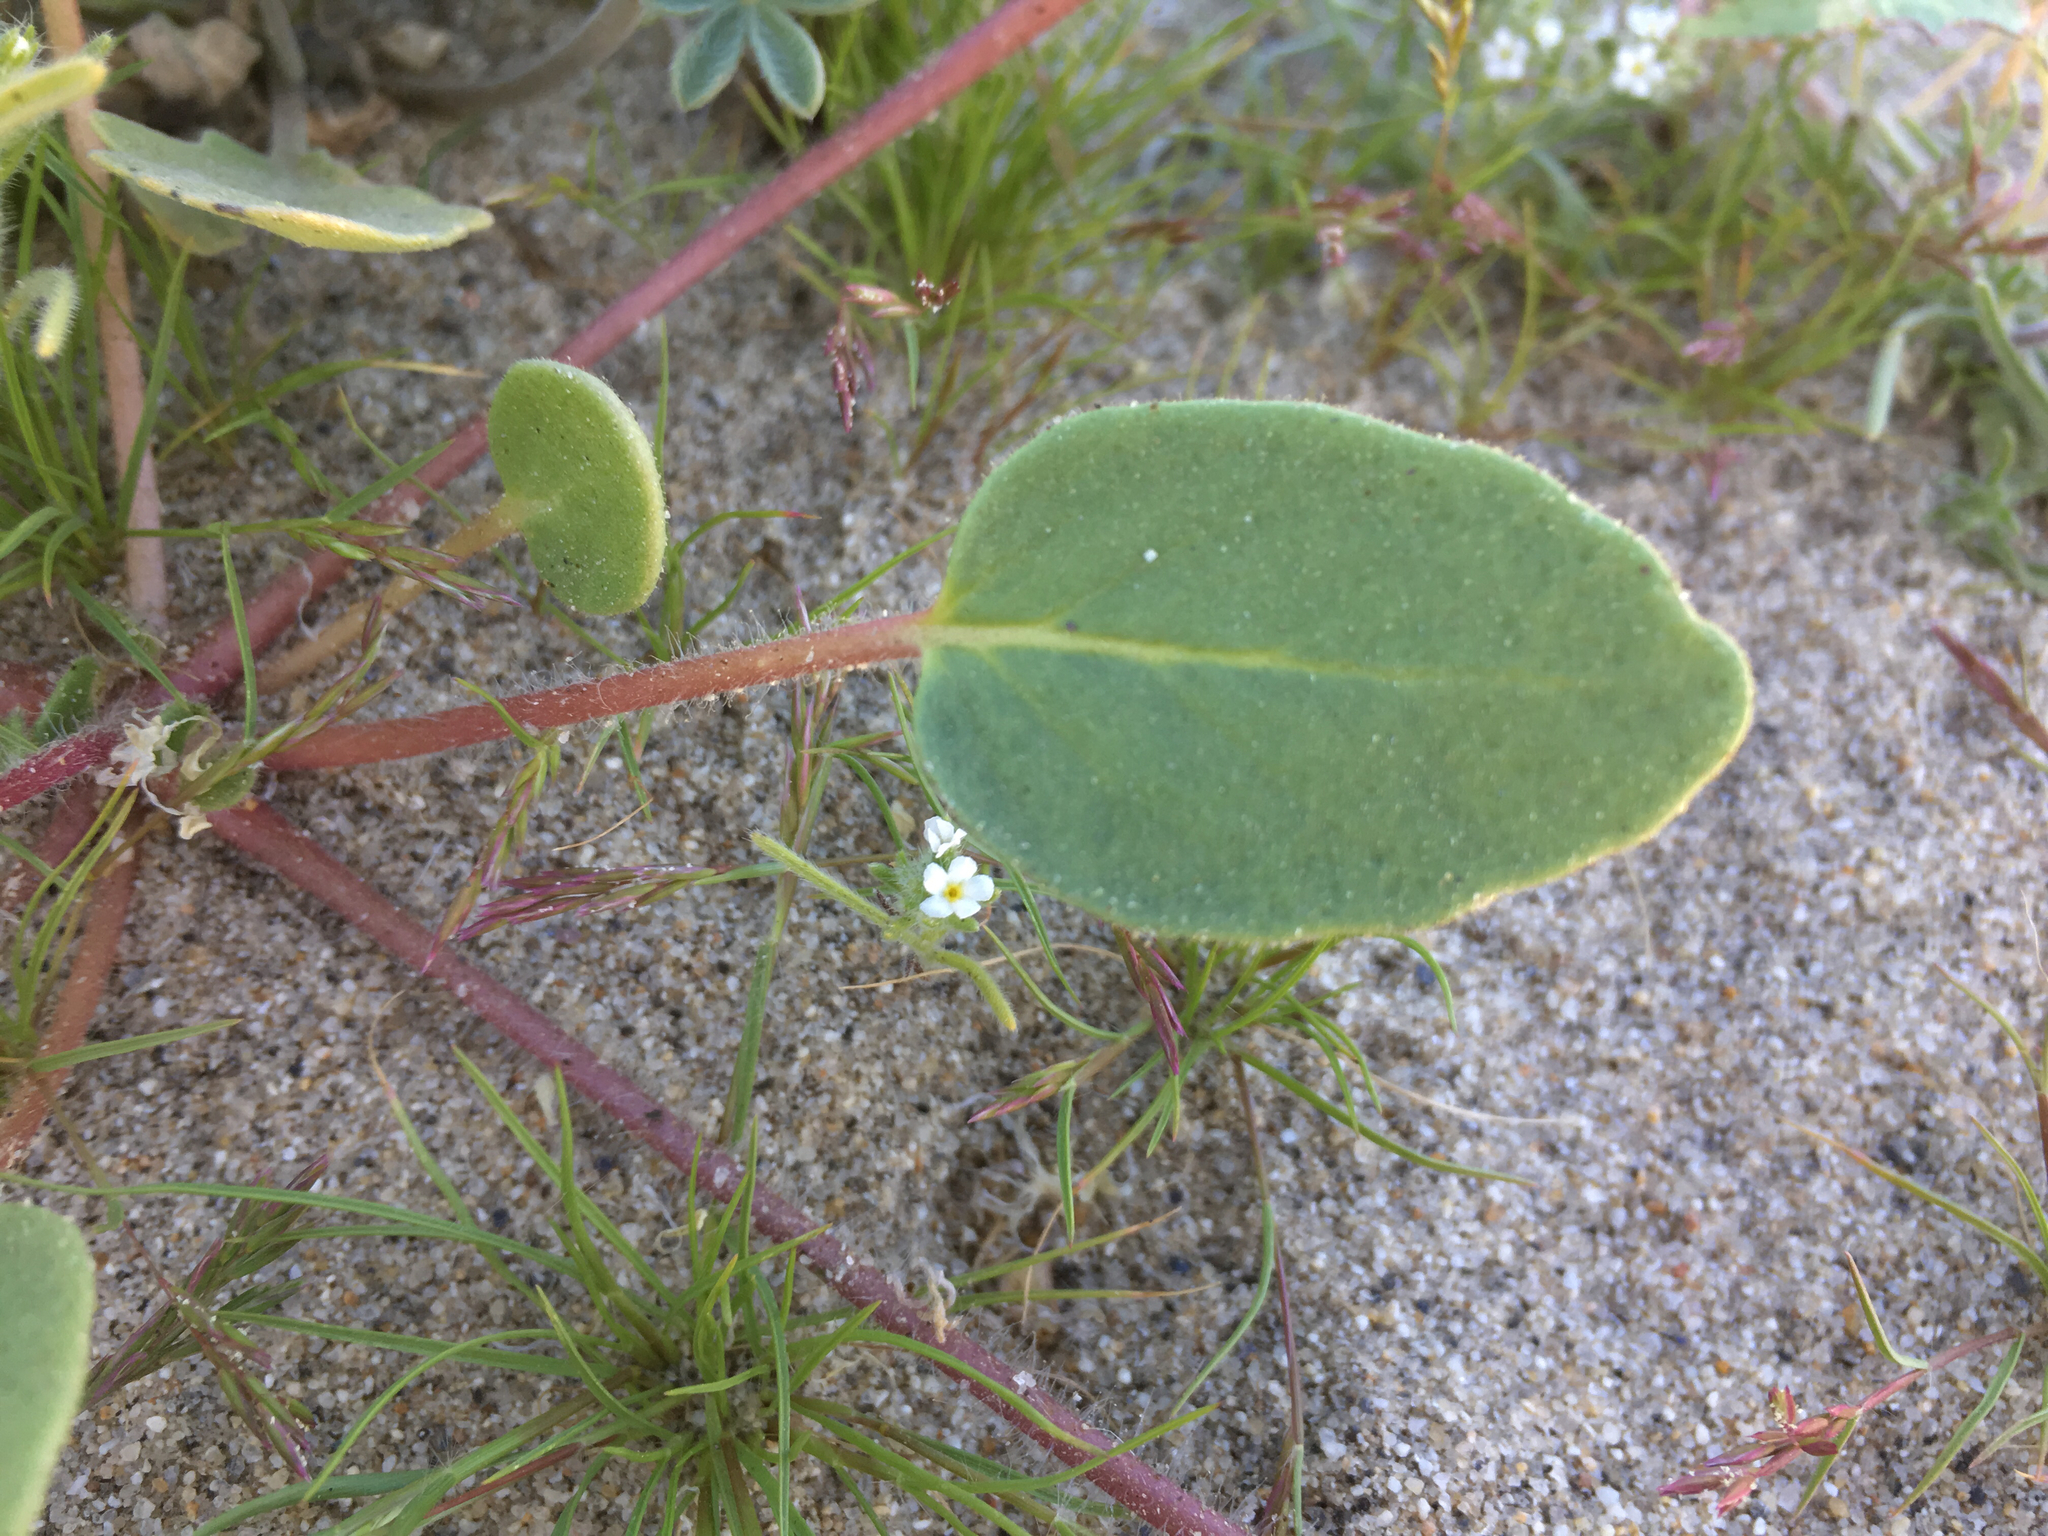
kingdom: Plantae
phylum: Tracheophyta
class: Magnoliopsida
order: Caryophyllales
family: Nyctaginaceae
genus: Abronia
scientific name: Abronia villosa
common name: Desert sand-verbena
